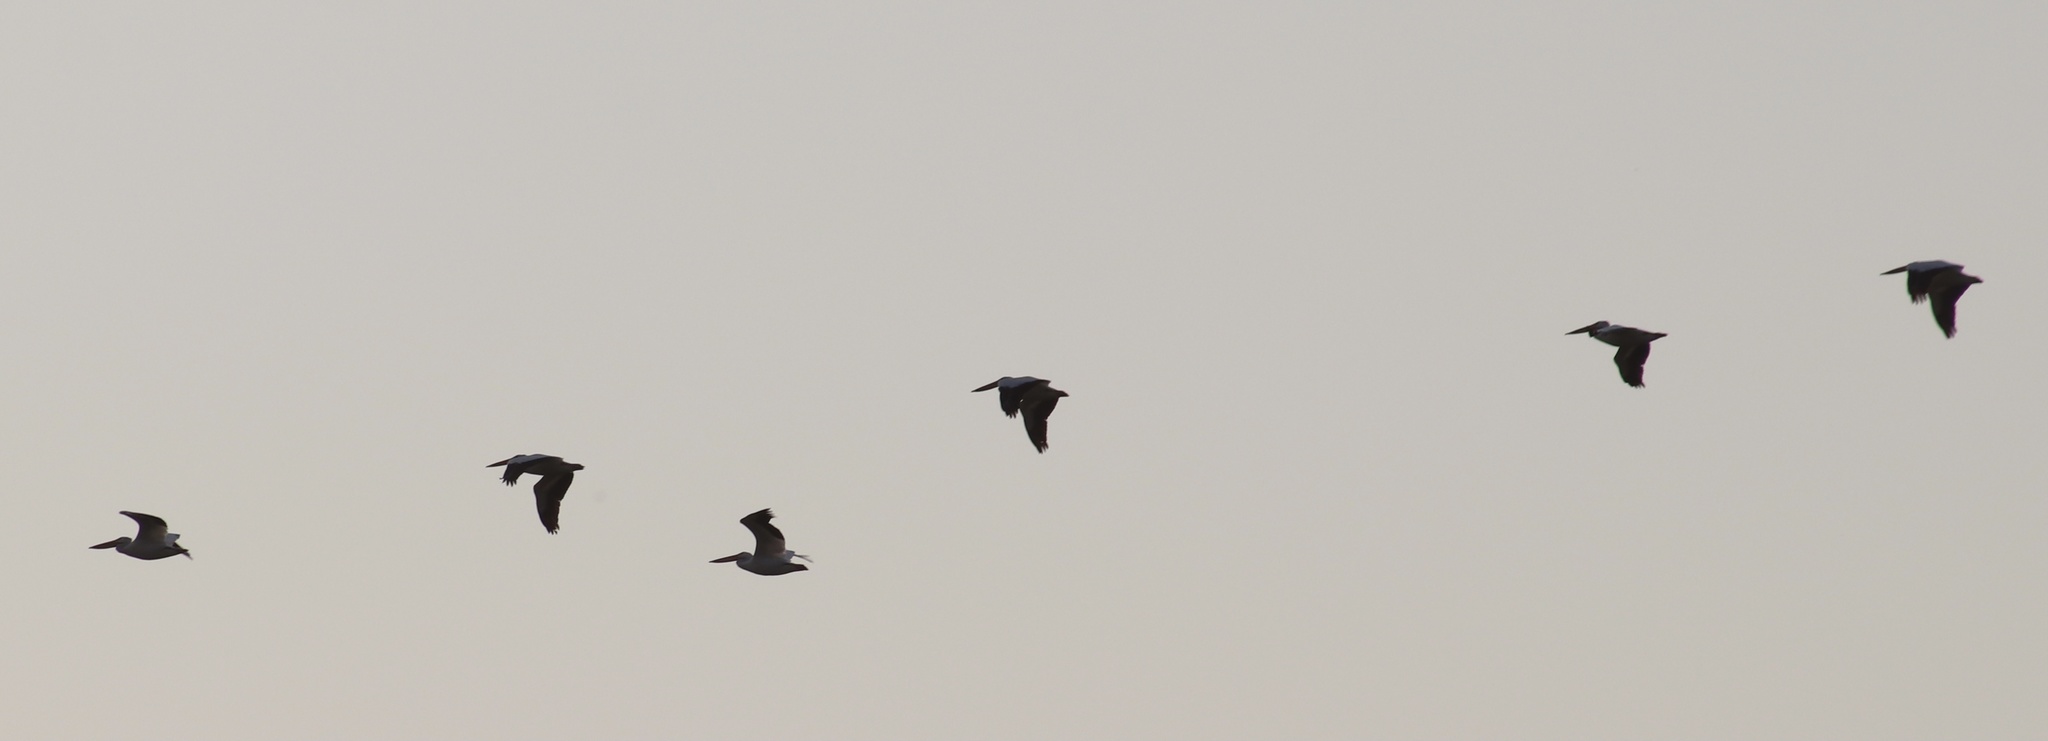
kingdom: Animalia
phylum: Chordata
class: Aves
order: Pelecaniformes
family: Pelecanidae
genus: Pelecanus
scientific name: Pelecanus erythrorhynchos
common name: American white pelican
